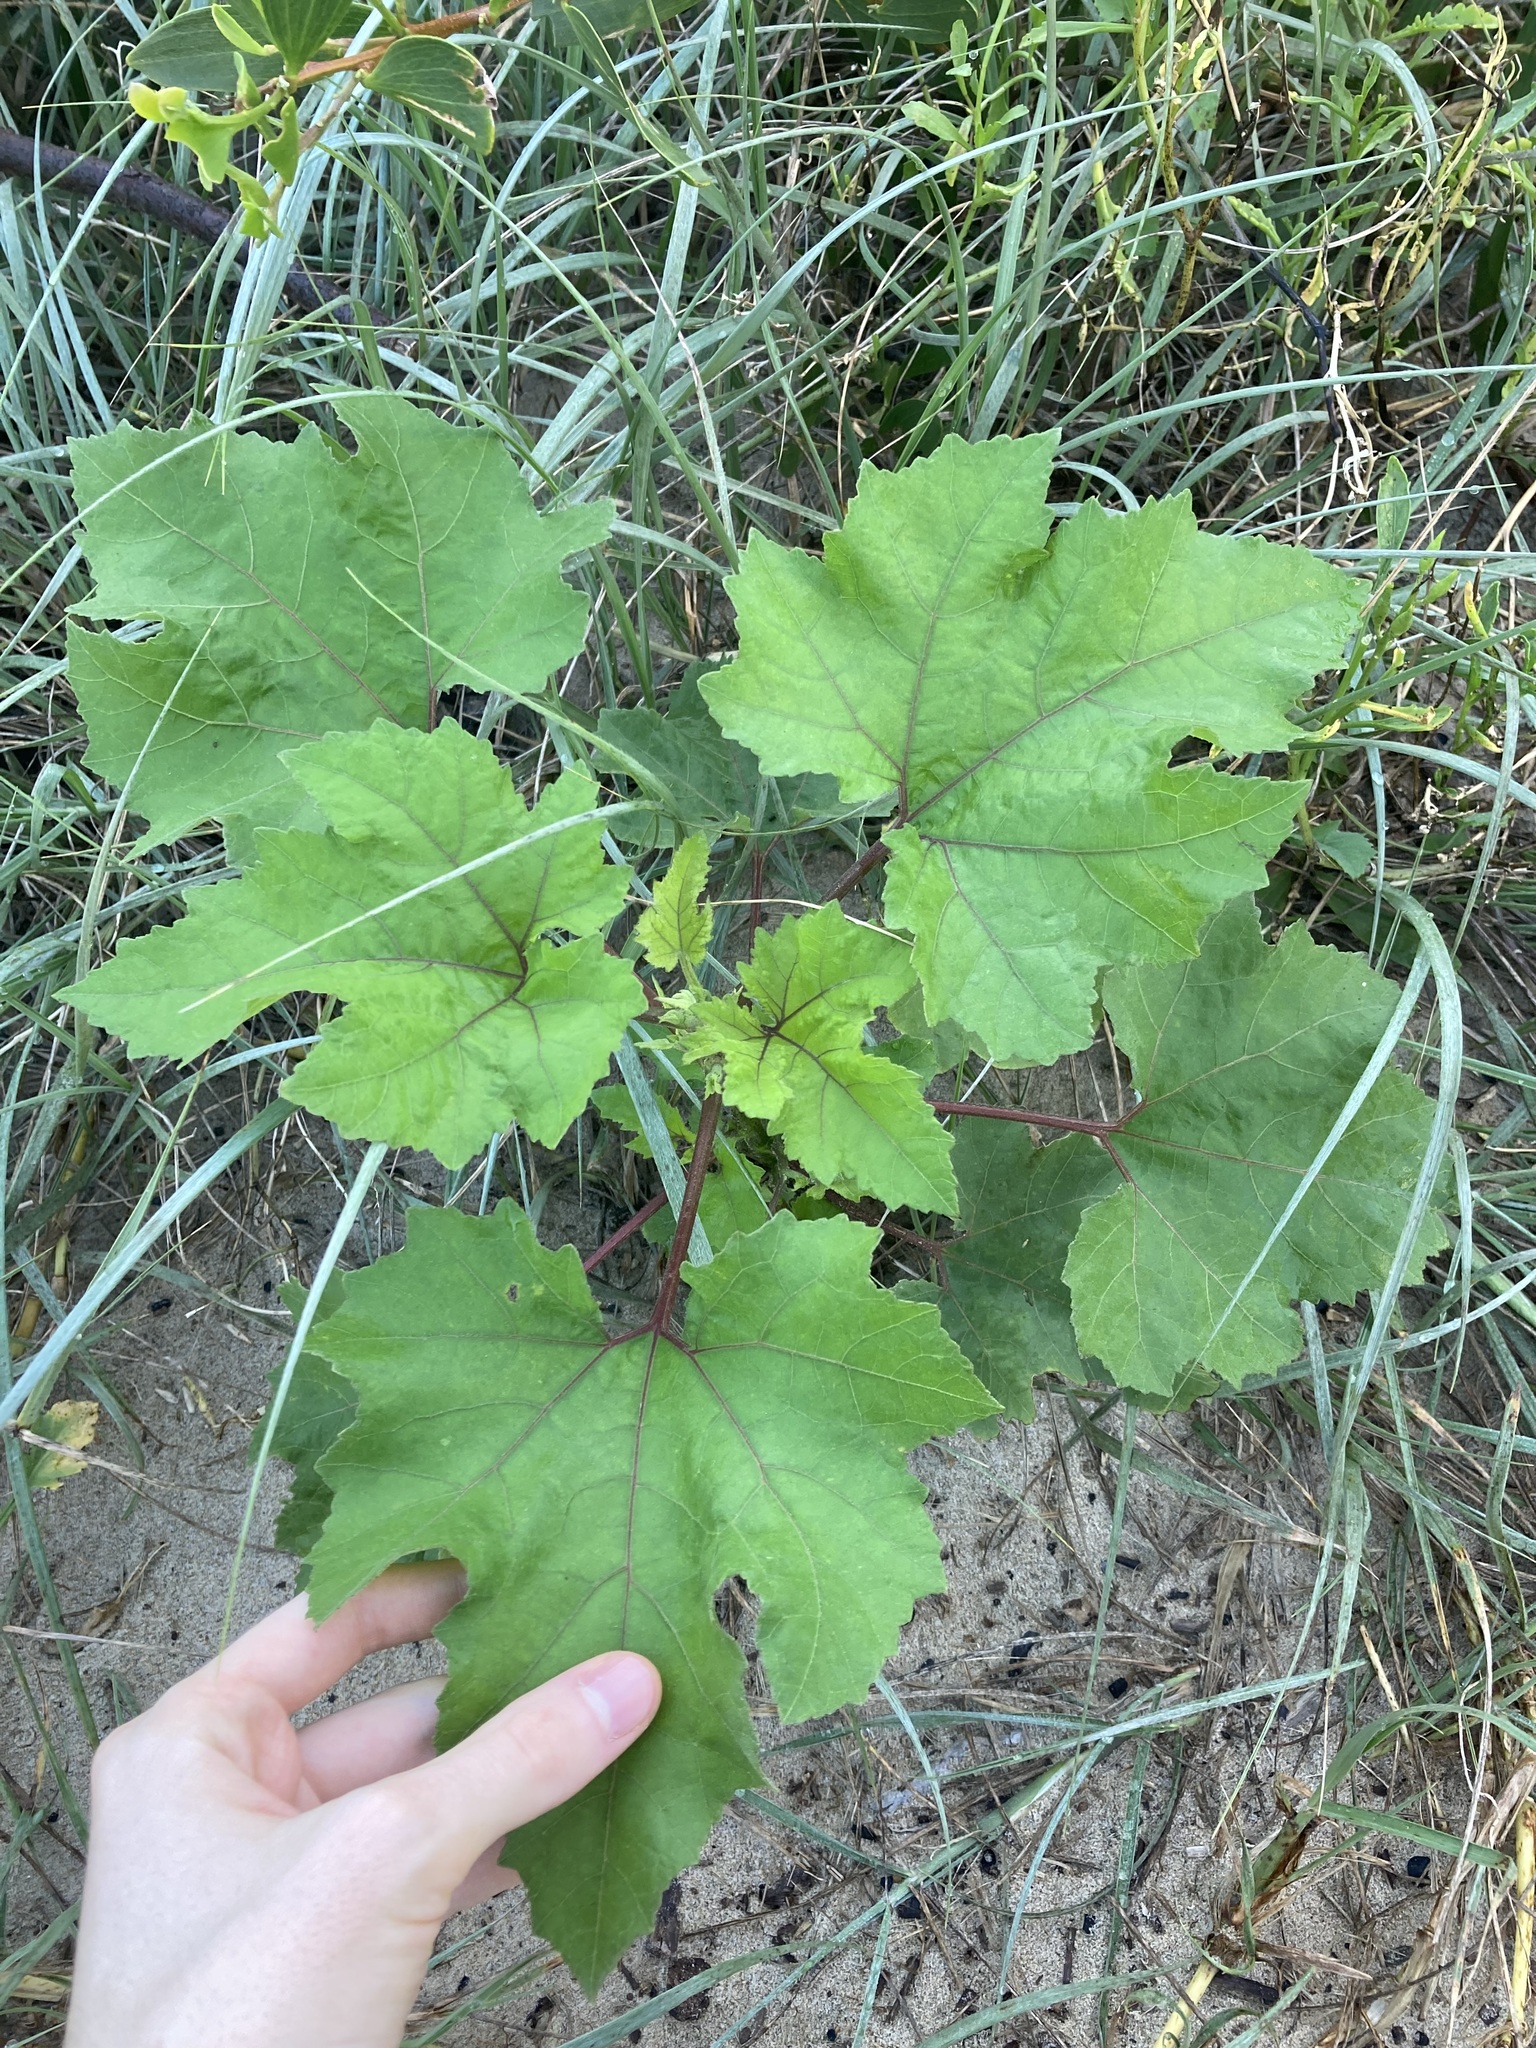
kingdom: Plantae
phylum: Tracheophyta
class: Magnoliopsida
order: Asterales
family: Asteraceae
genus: Xanthium
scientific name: Xanthium strumarium
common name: Rough cocklebur
